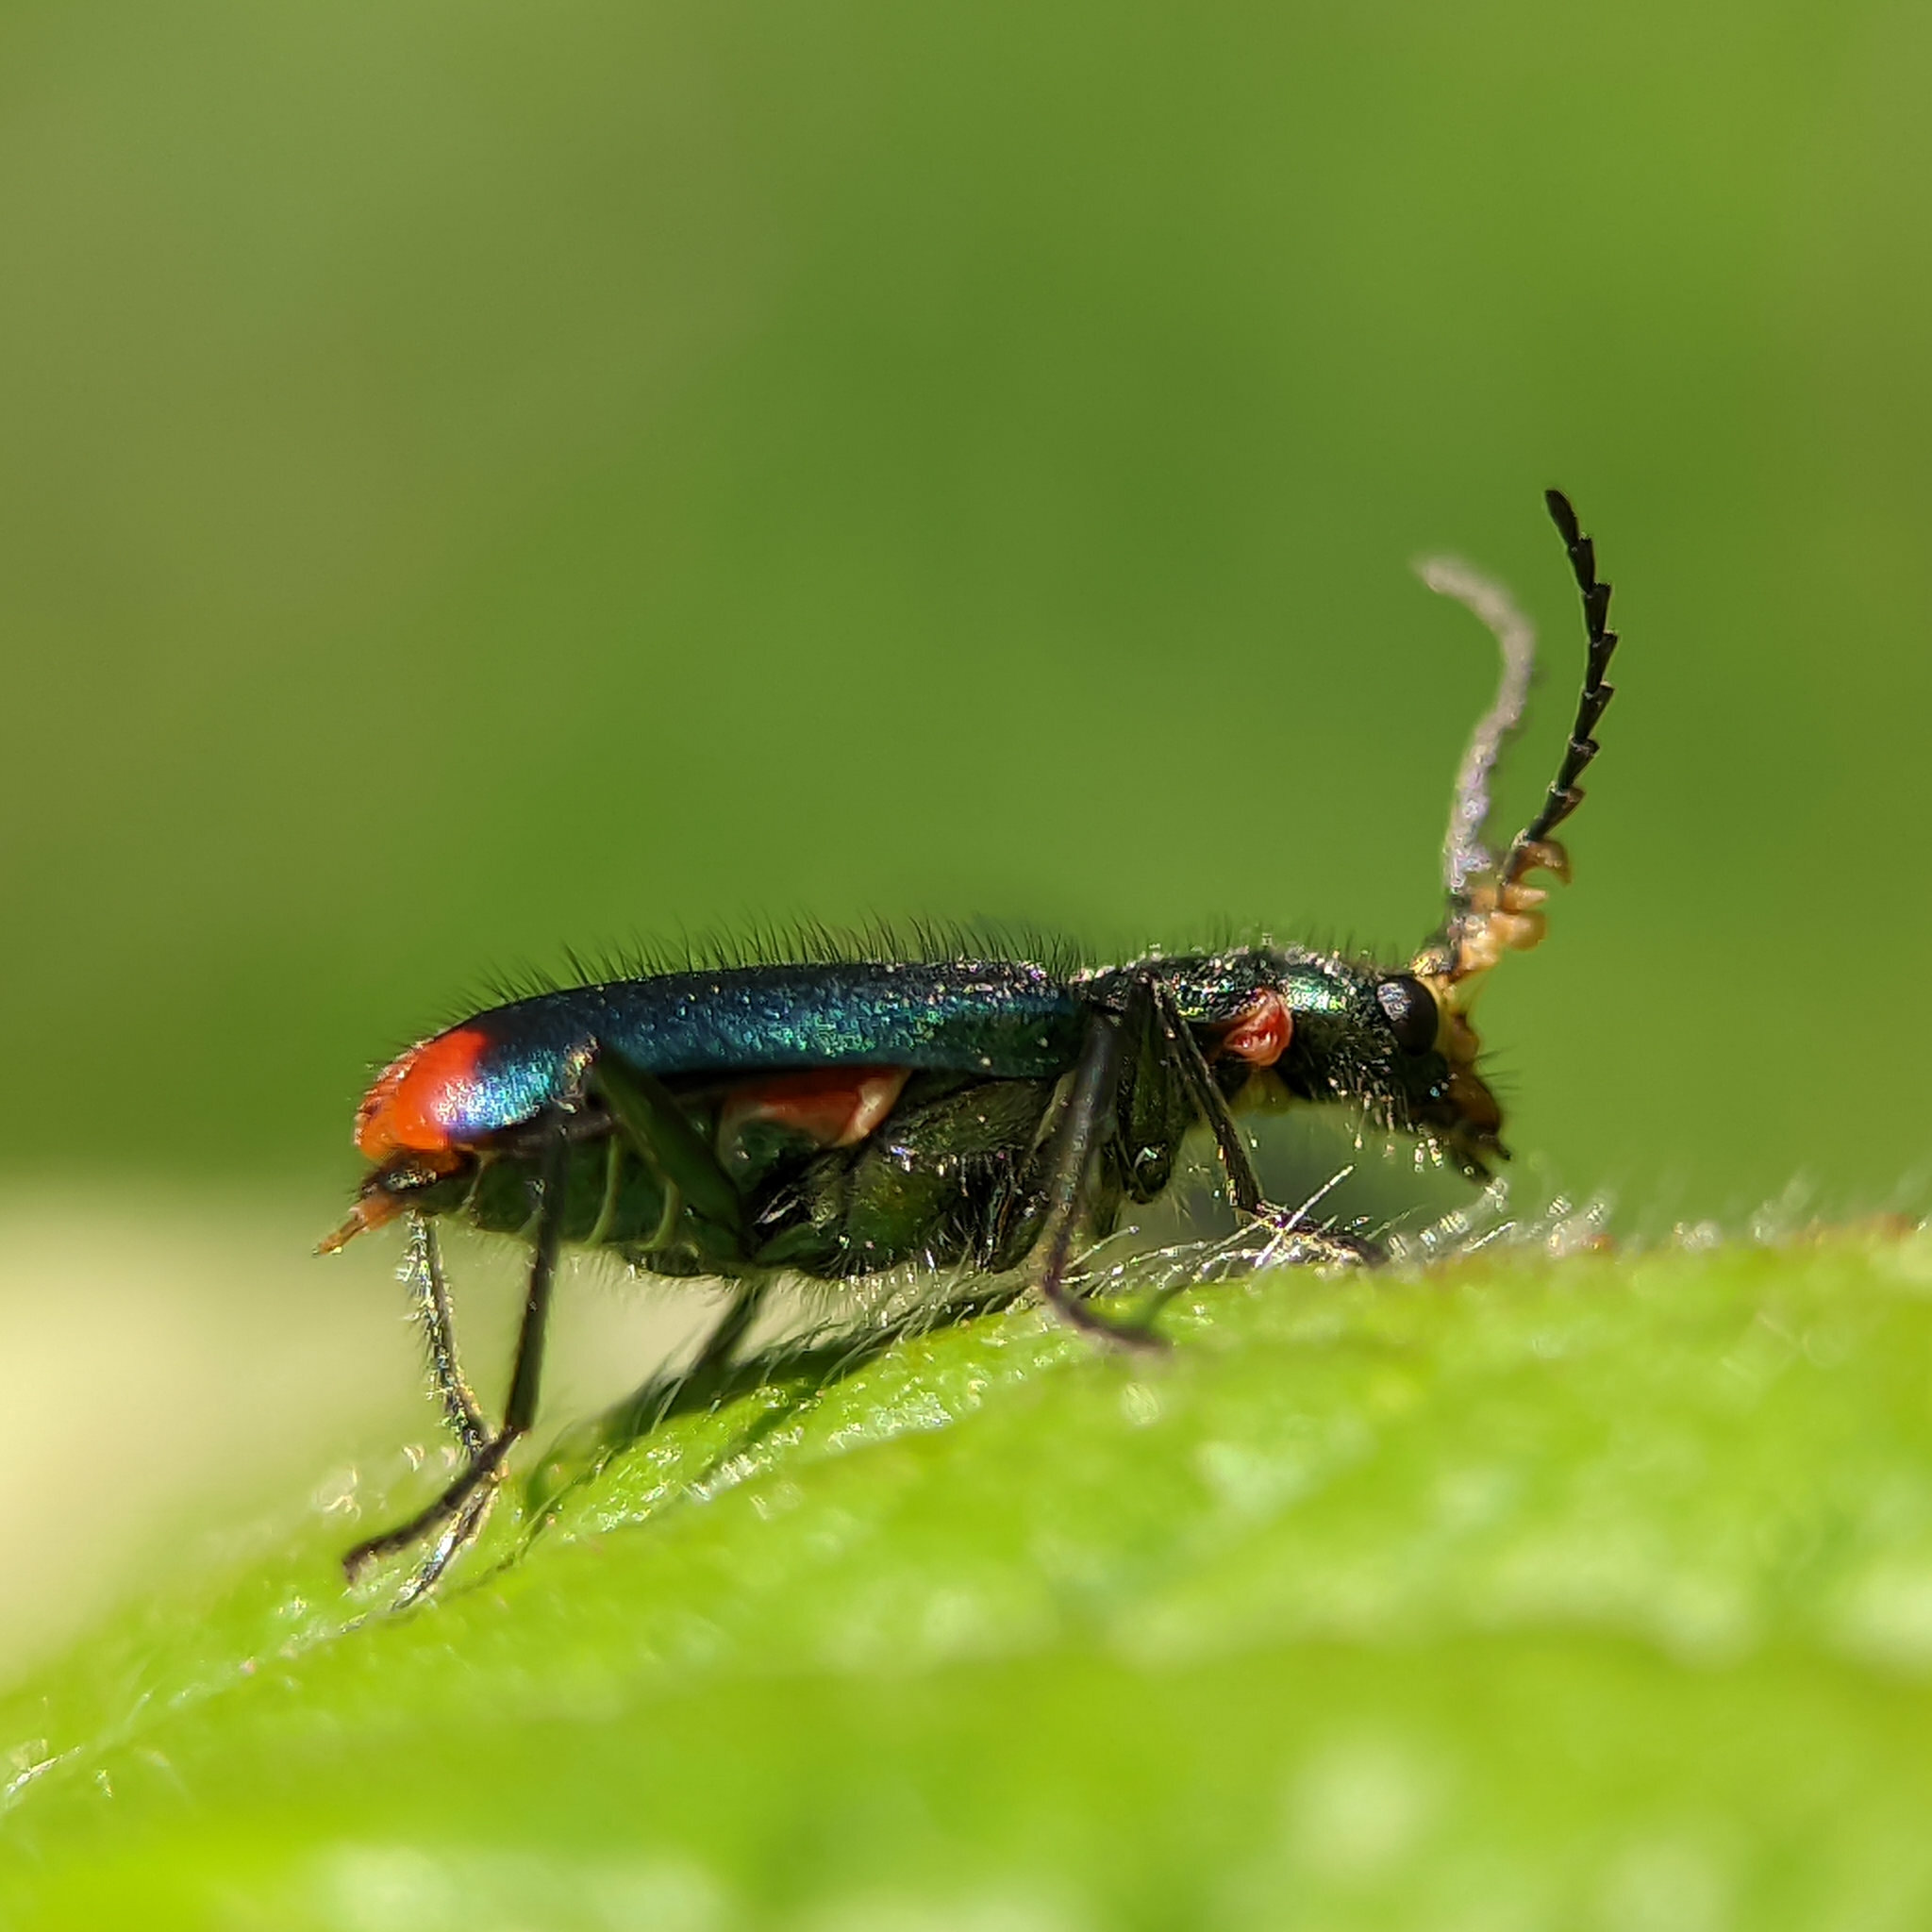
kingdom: Animalia
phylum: Arthropoda
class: Insecta
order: Coleoptera
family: Melyridae
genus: Malachius
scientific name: Malachius bipustulatus
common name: Malachite beetle
